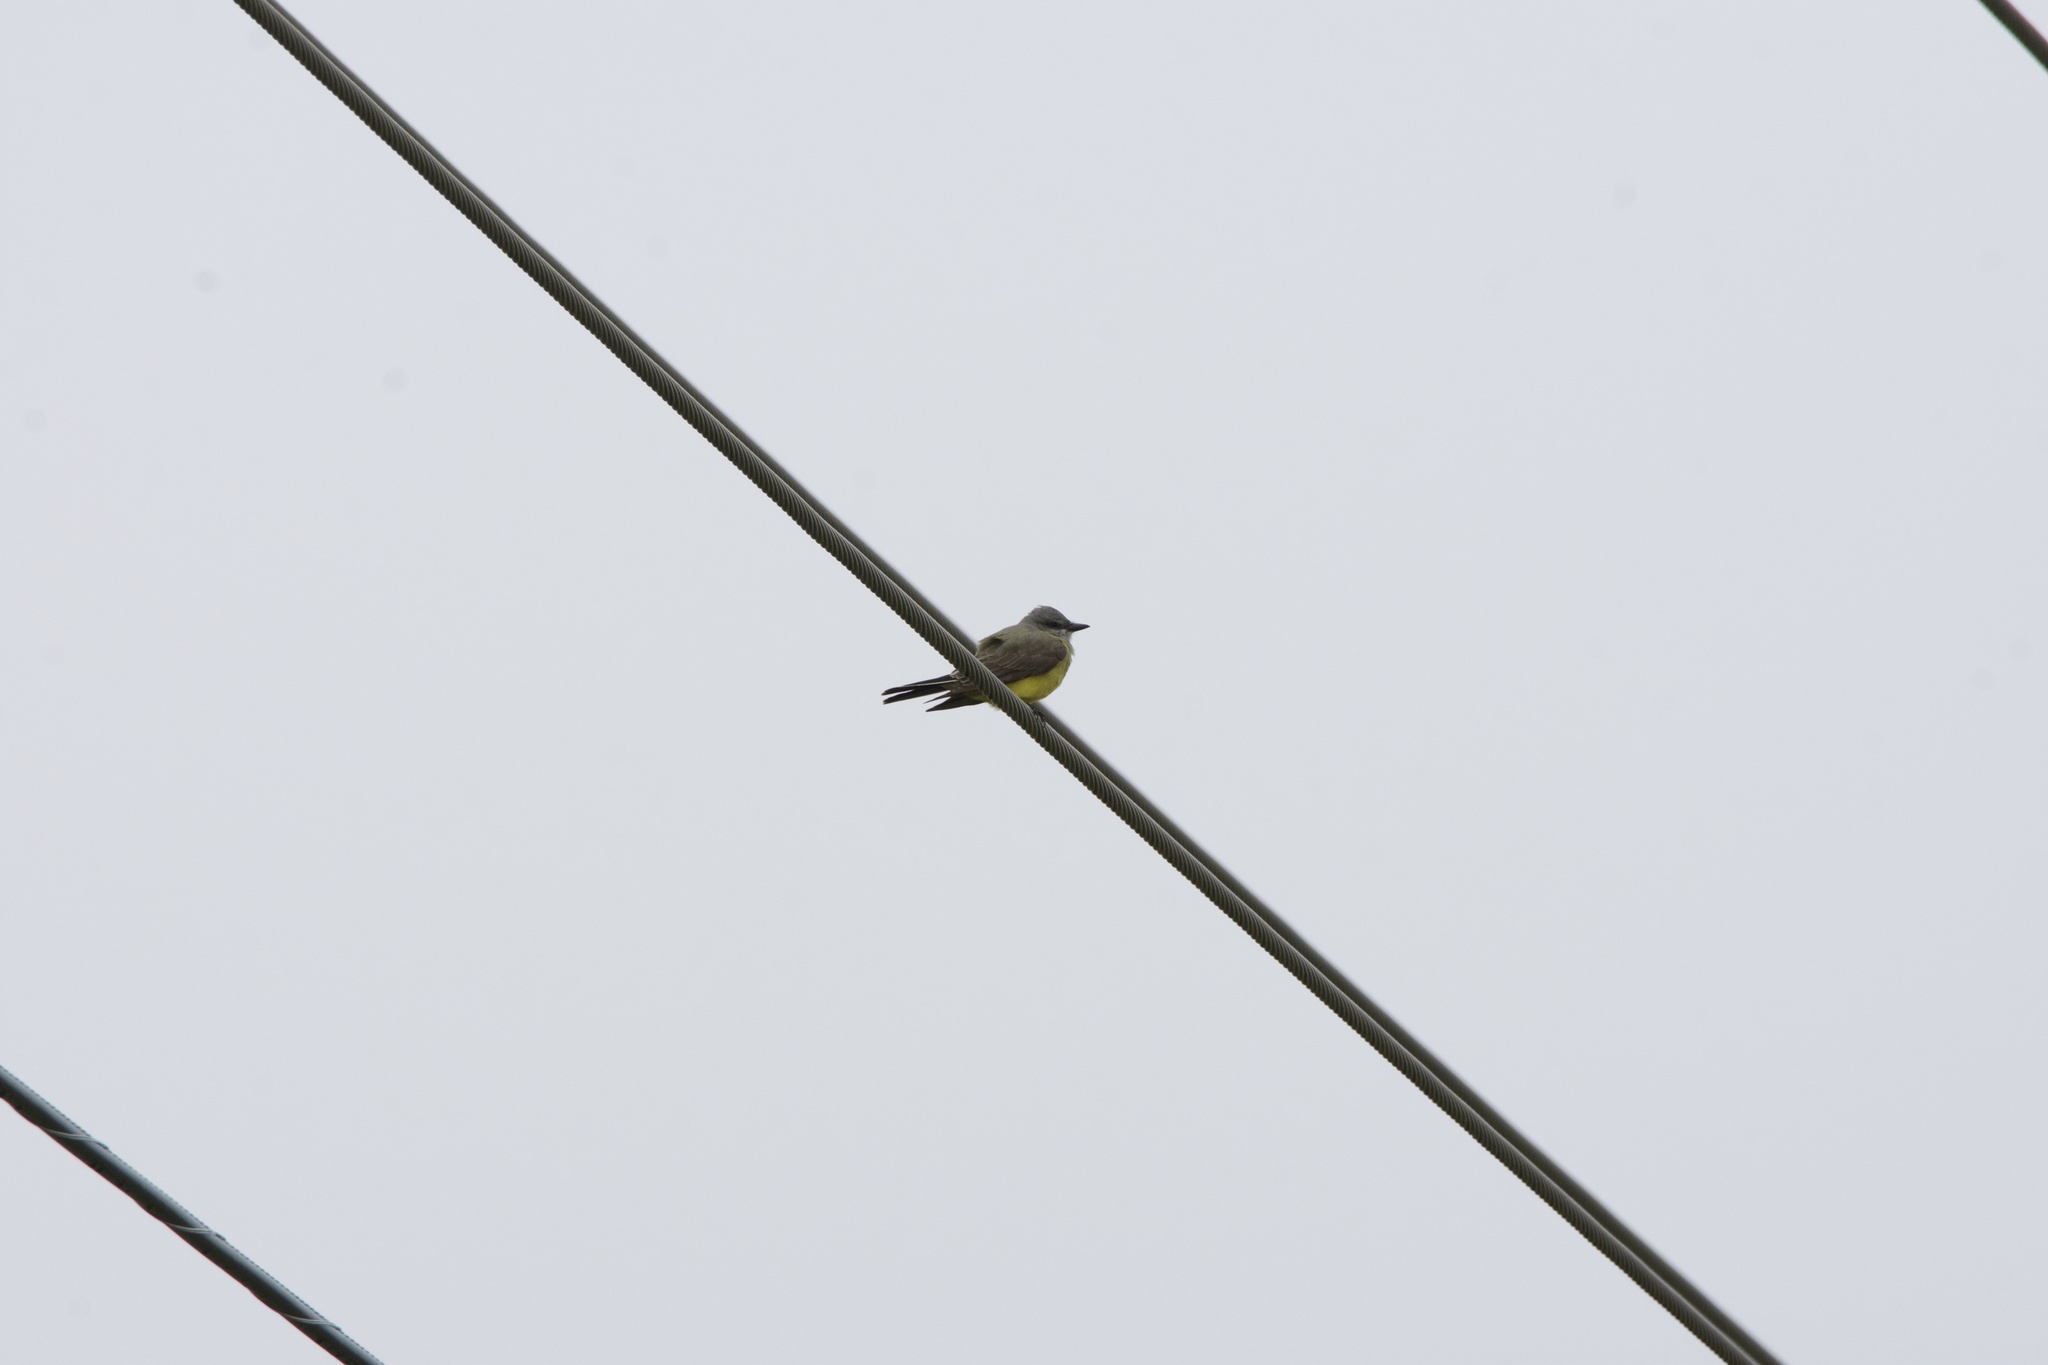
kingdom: Animalia
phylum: Chordata
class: Aves
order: Passeriformes
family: Tyrannidae
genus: Tyrannus
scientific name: Tyrannus verticalis
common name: Western kingbird
